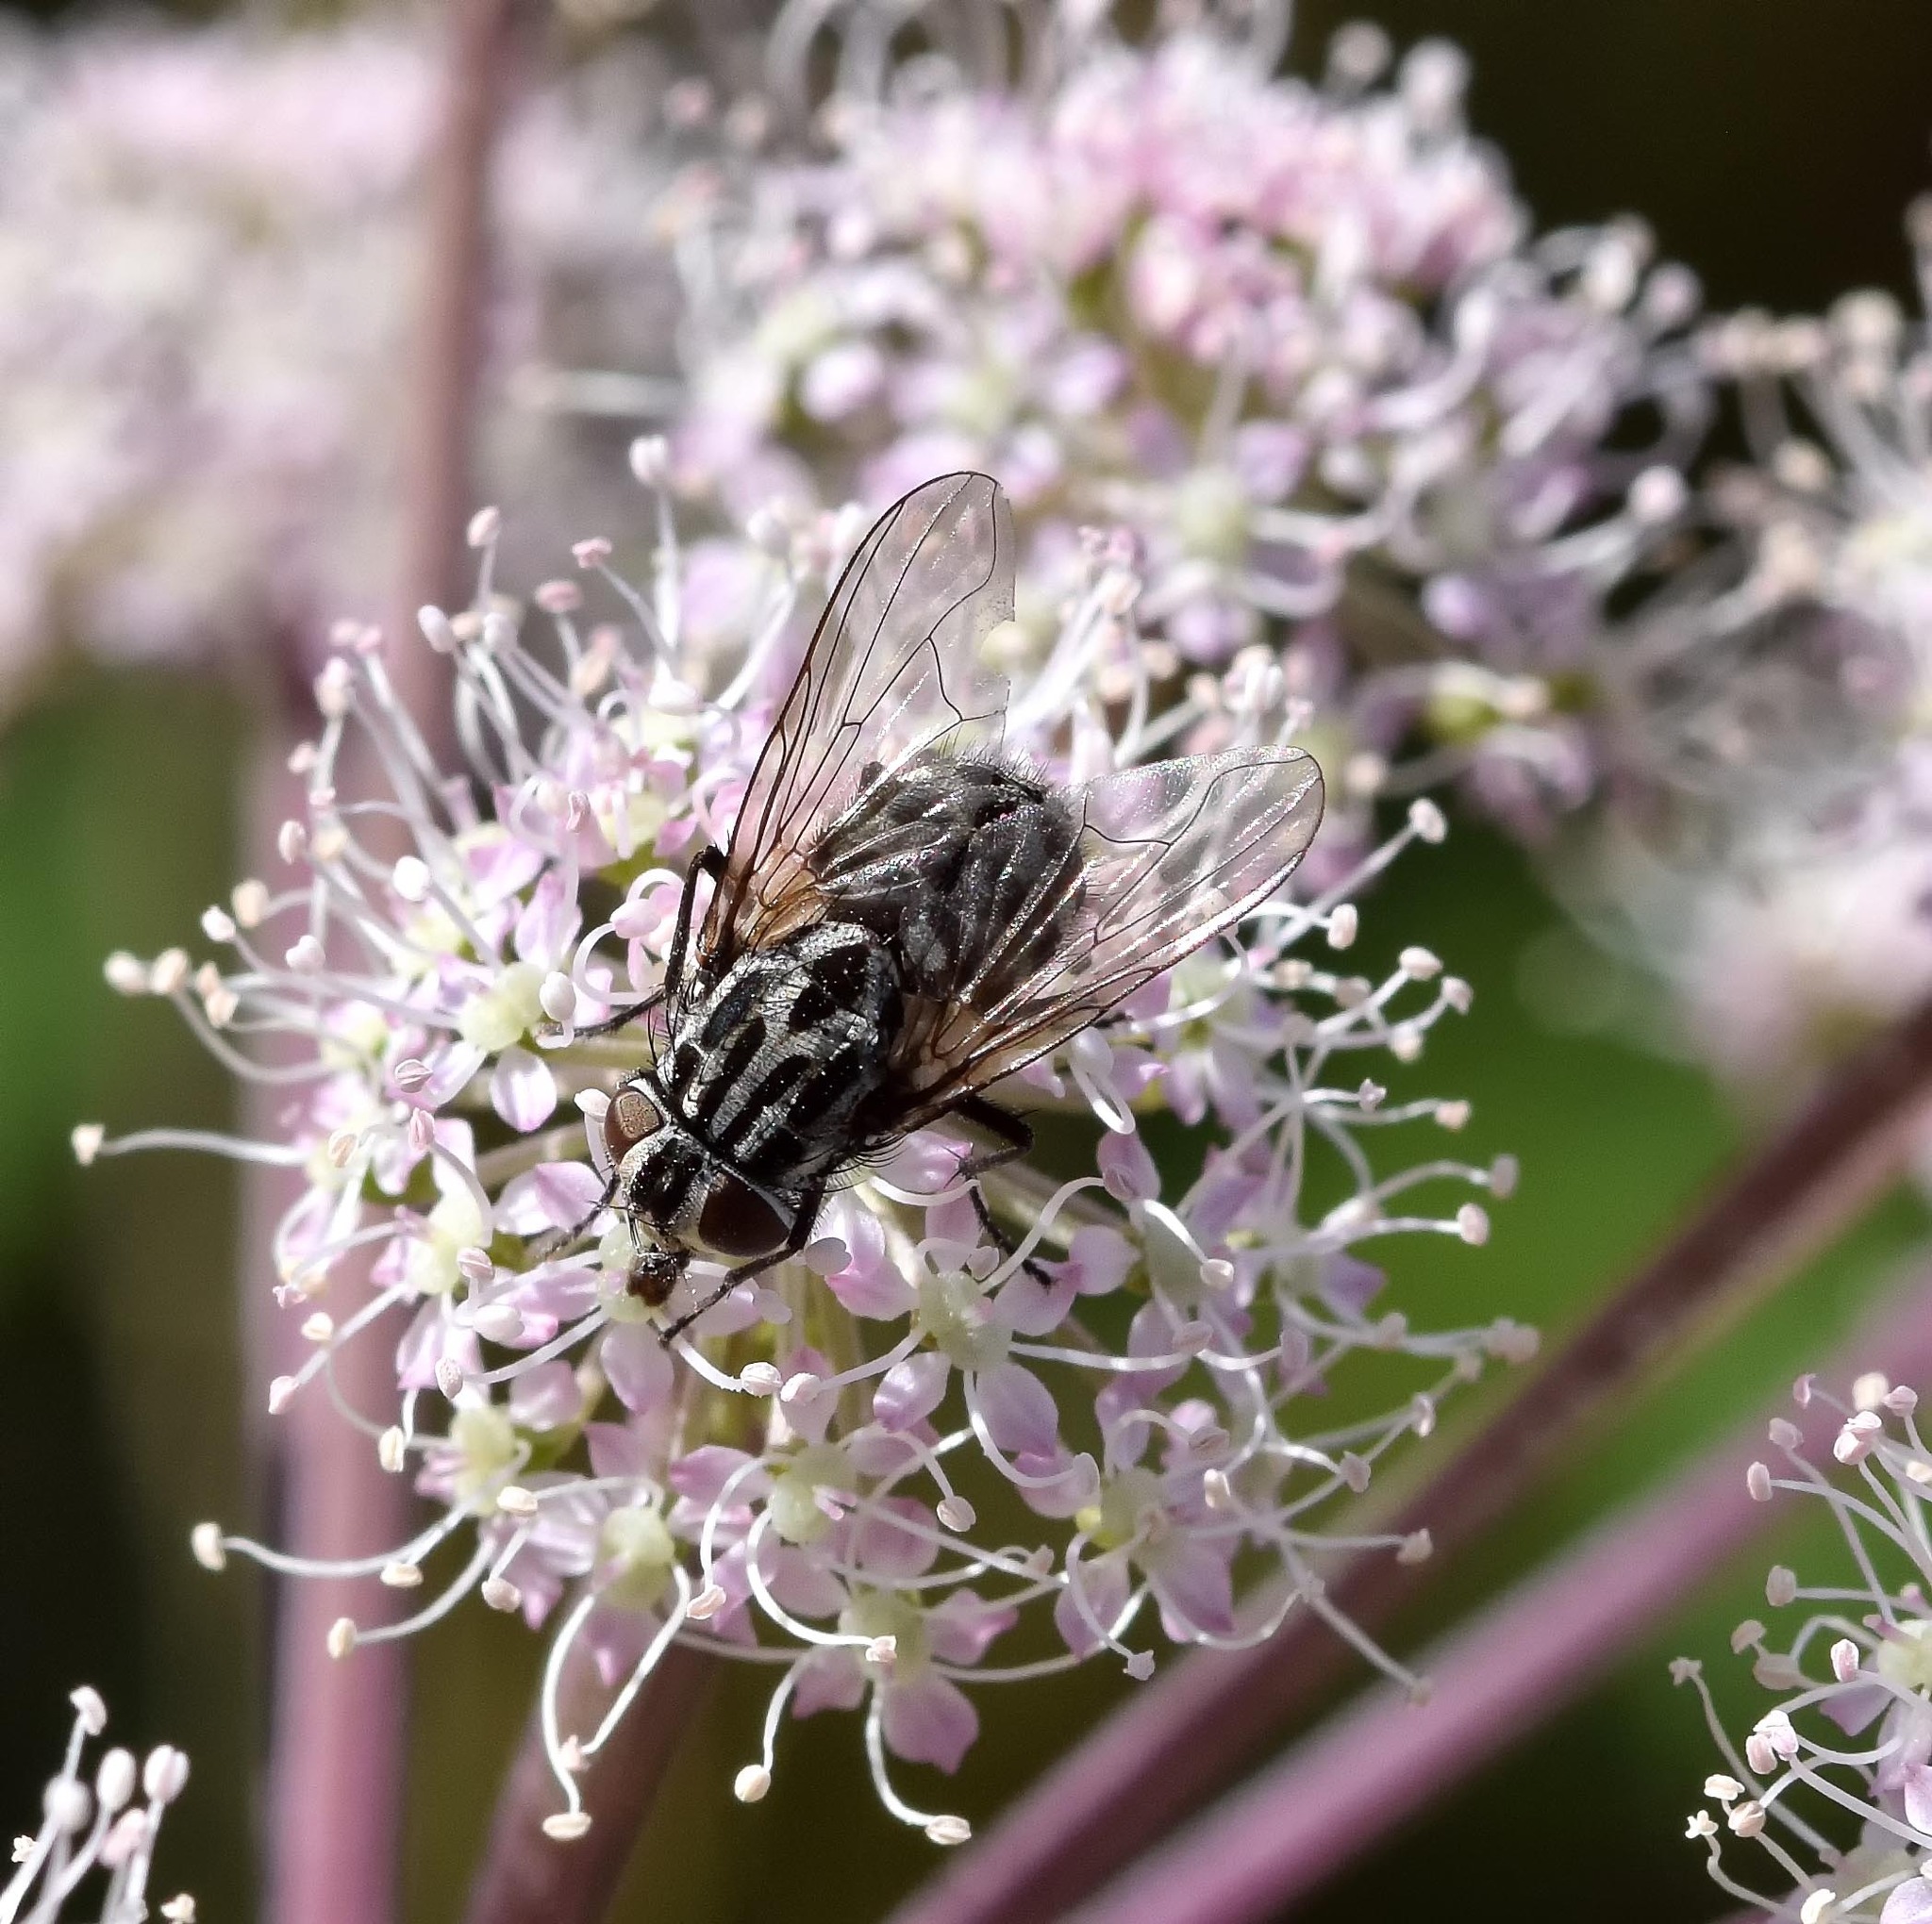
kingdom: Animalia
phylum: Arthropoda
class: Insecta
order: Diptera
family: Muscidae
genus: Graphomya
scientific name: Graphomya maculata
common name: Muscid fly
